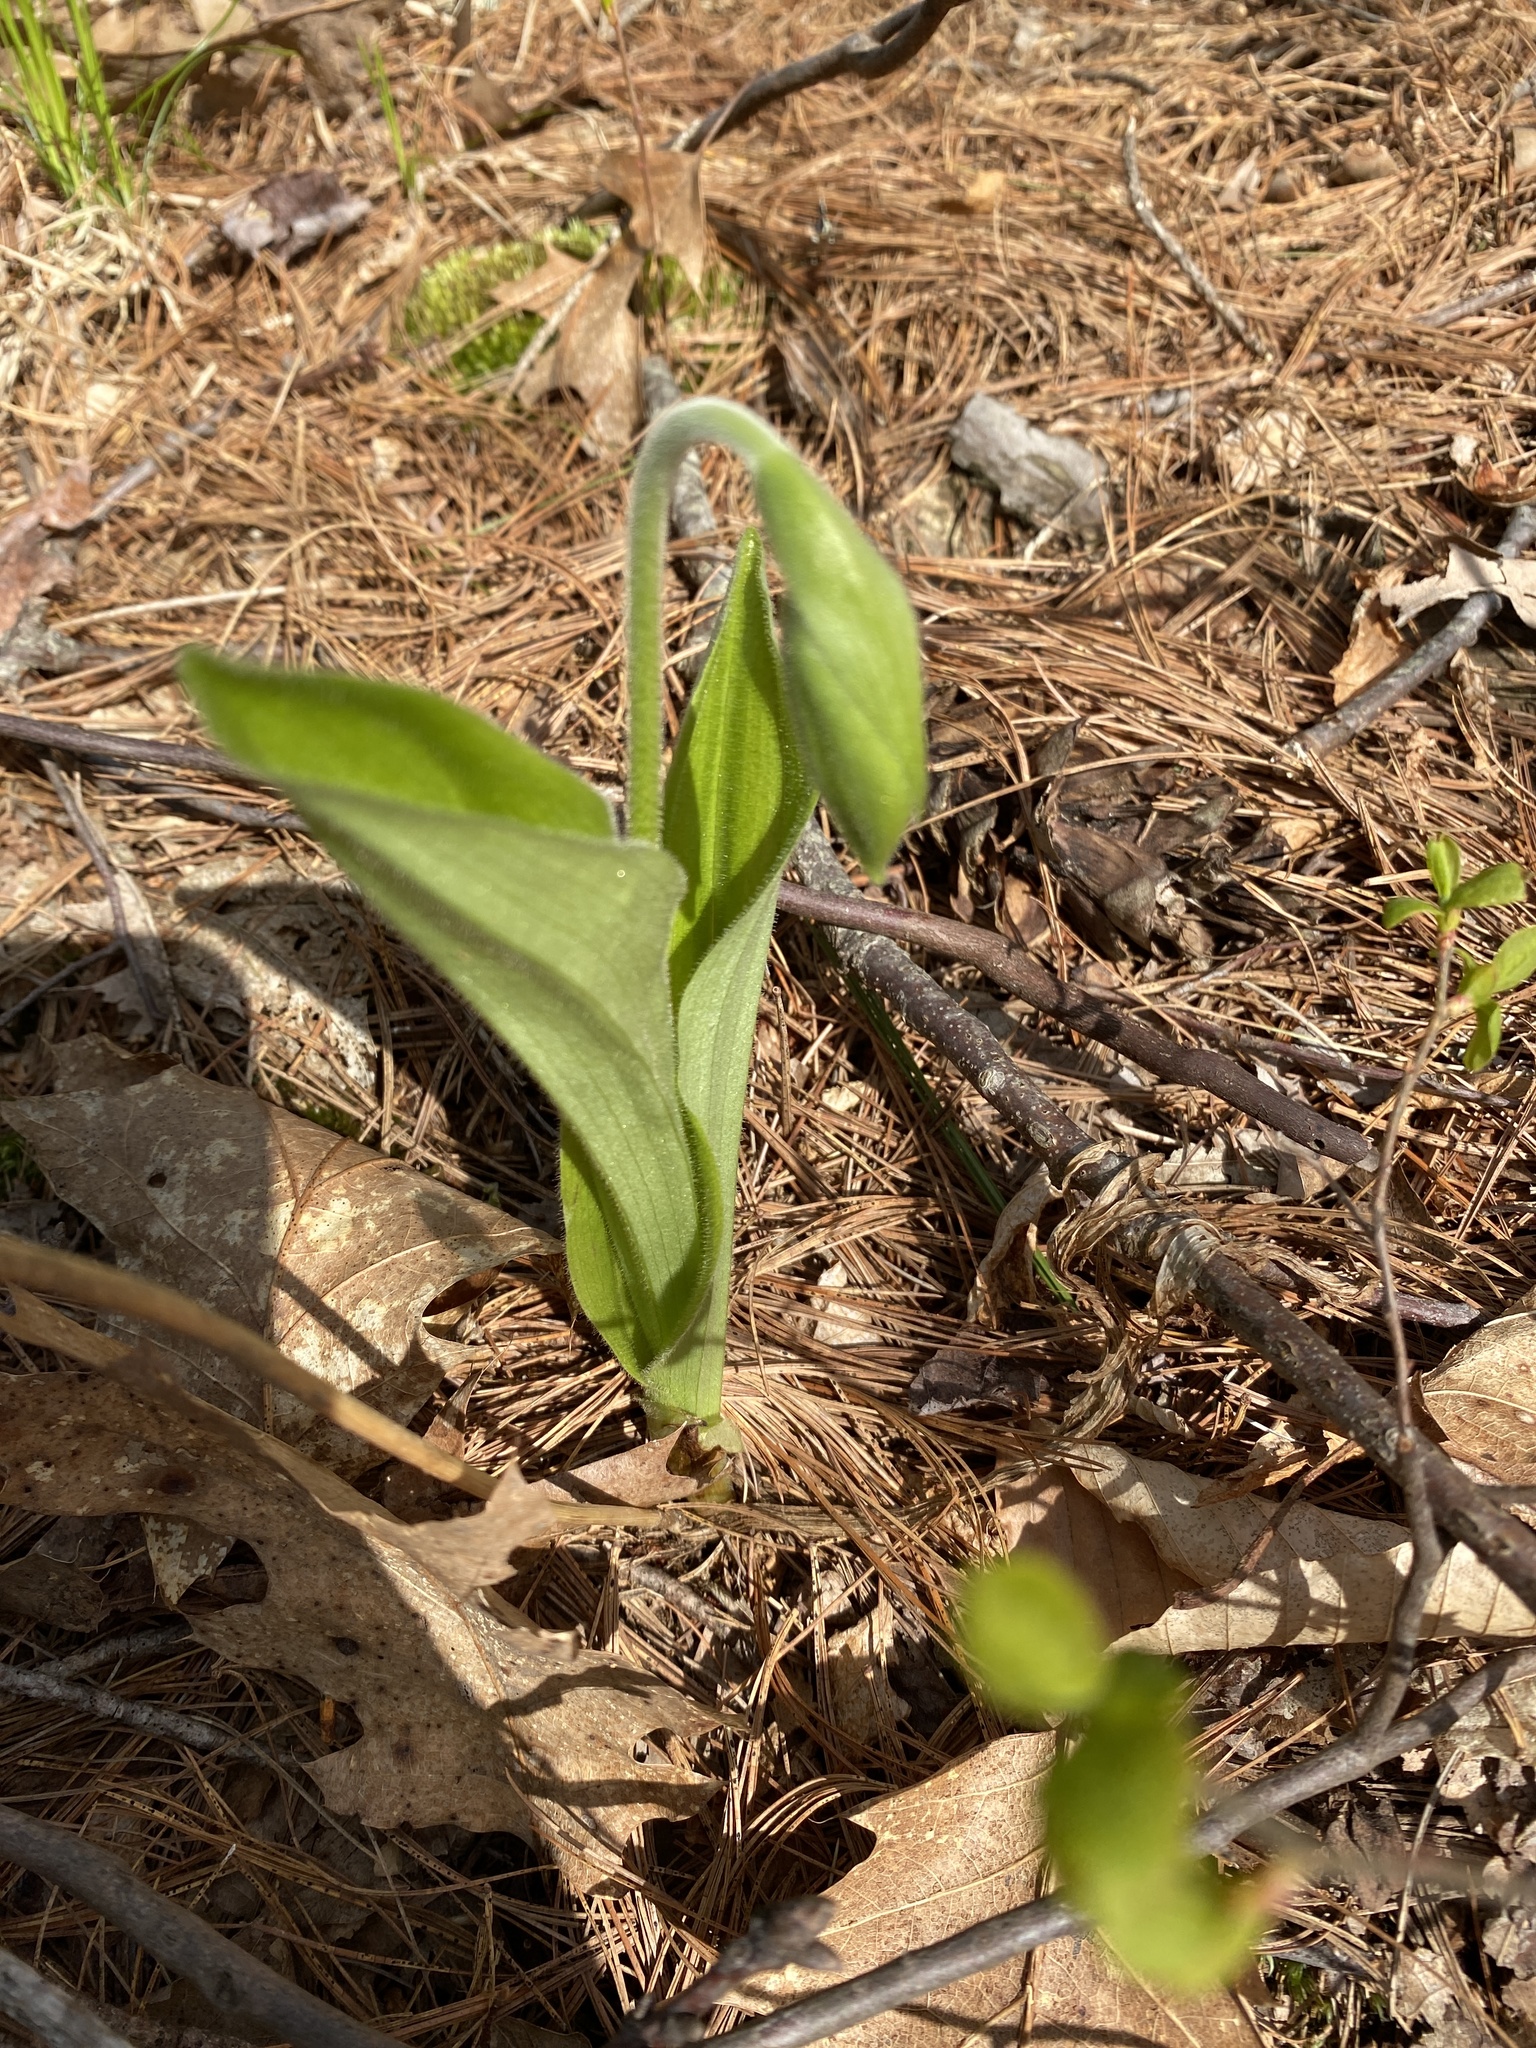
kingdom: Plantae
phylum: Tracheophyta
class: Liliopsida
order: Asparagales
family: Orchidaceae
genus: Cypripedium
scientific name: Cypripedium acaule
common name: Pink lady's-slipper
